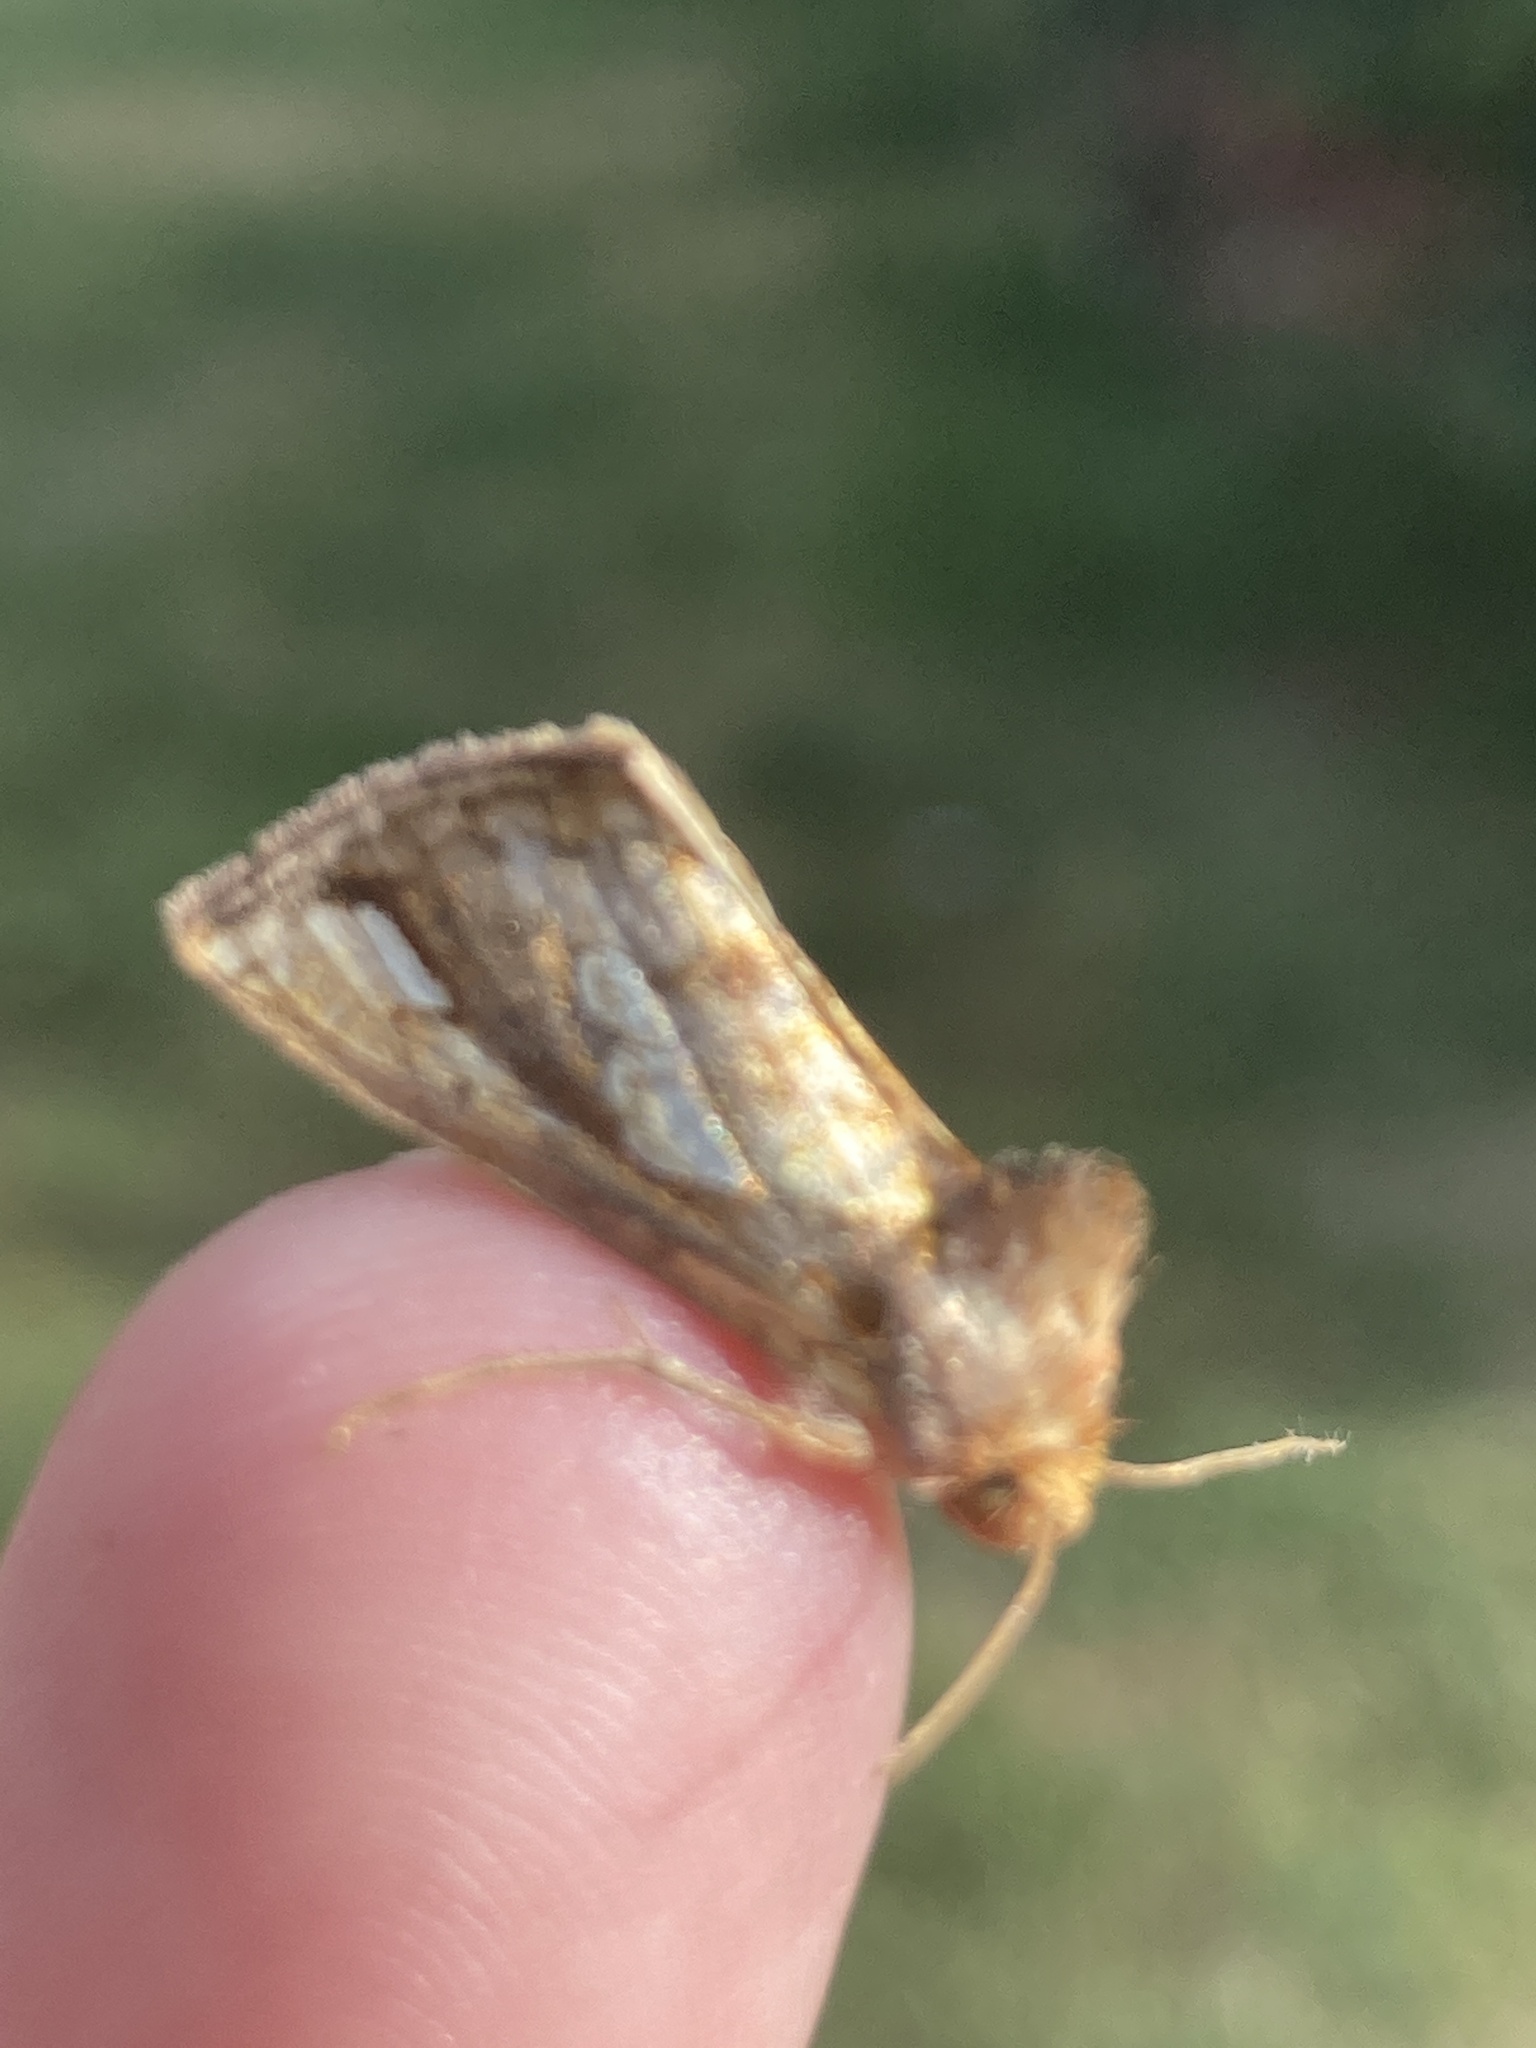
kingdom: Animalia
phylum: Arthropoda
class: Insecta
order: Lepidoptera
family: Noctuidae
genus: Plusia
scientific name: Plusia festucae
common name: Gold spot
